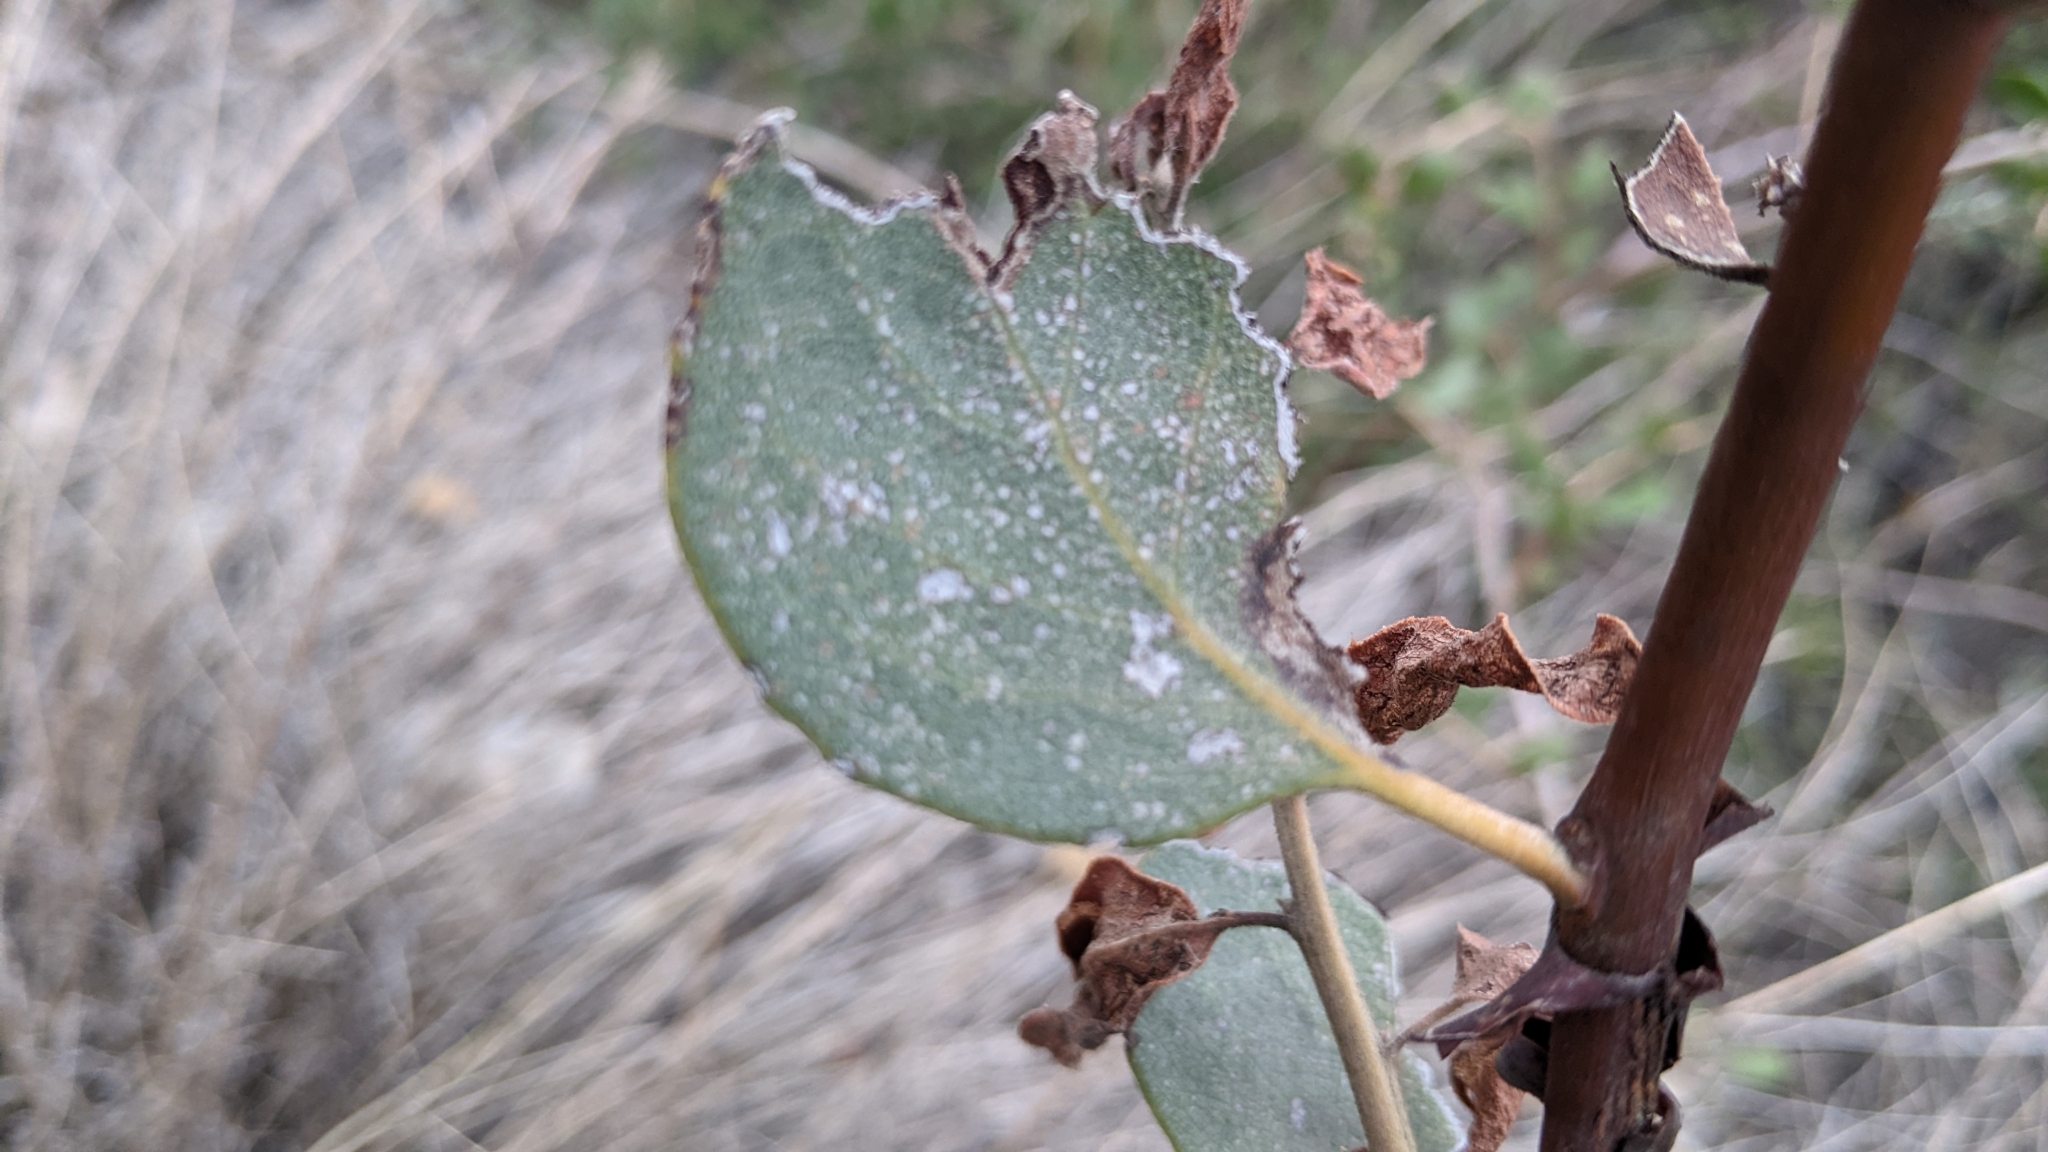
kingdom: Plantae
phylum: Tracheophyta
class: Magnoliopsida
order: Ericales
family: Ericaceae
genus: Arctostaphylos
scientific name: Arctostaphylos glandulosa
